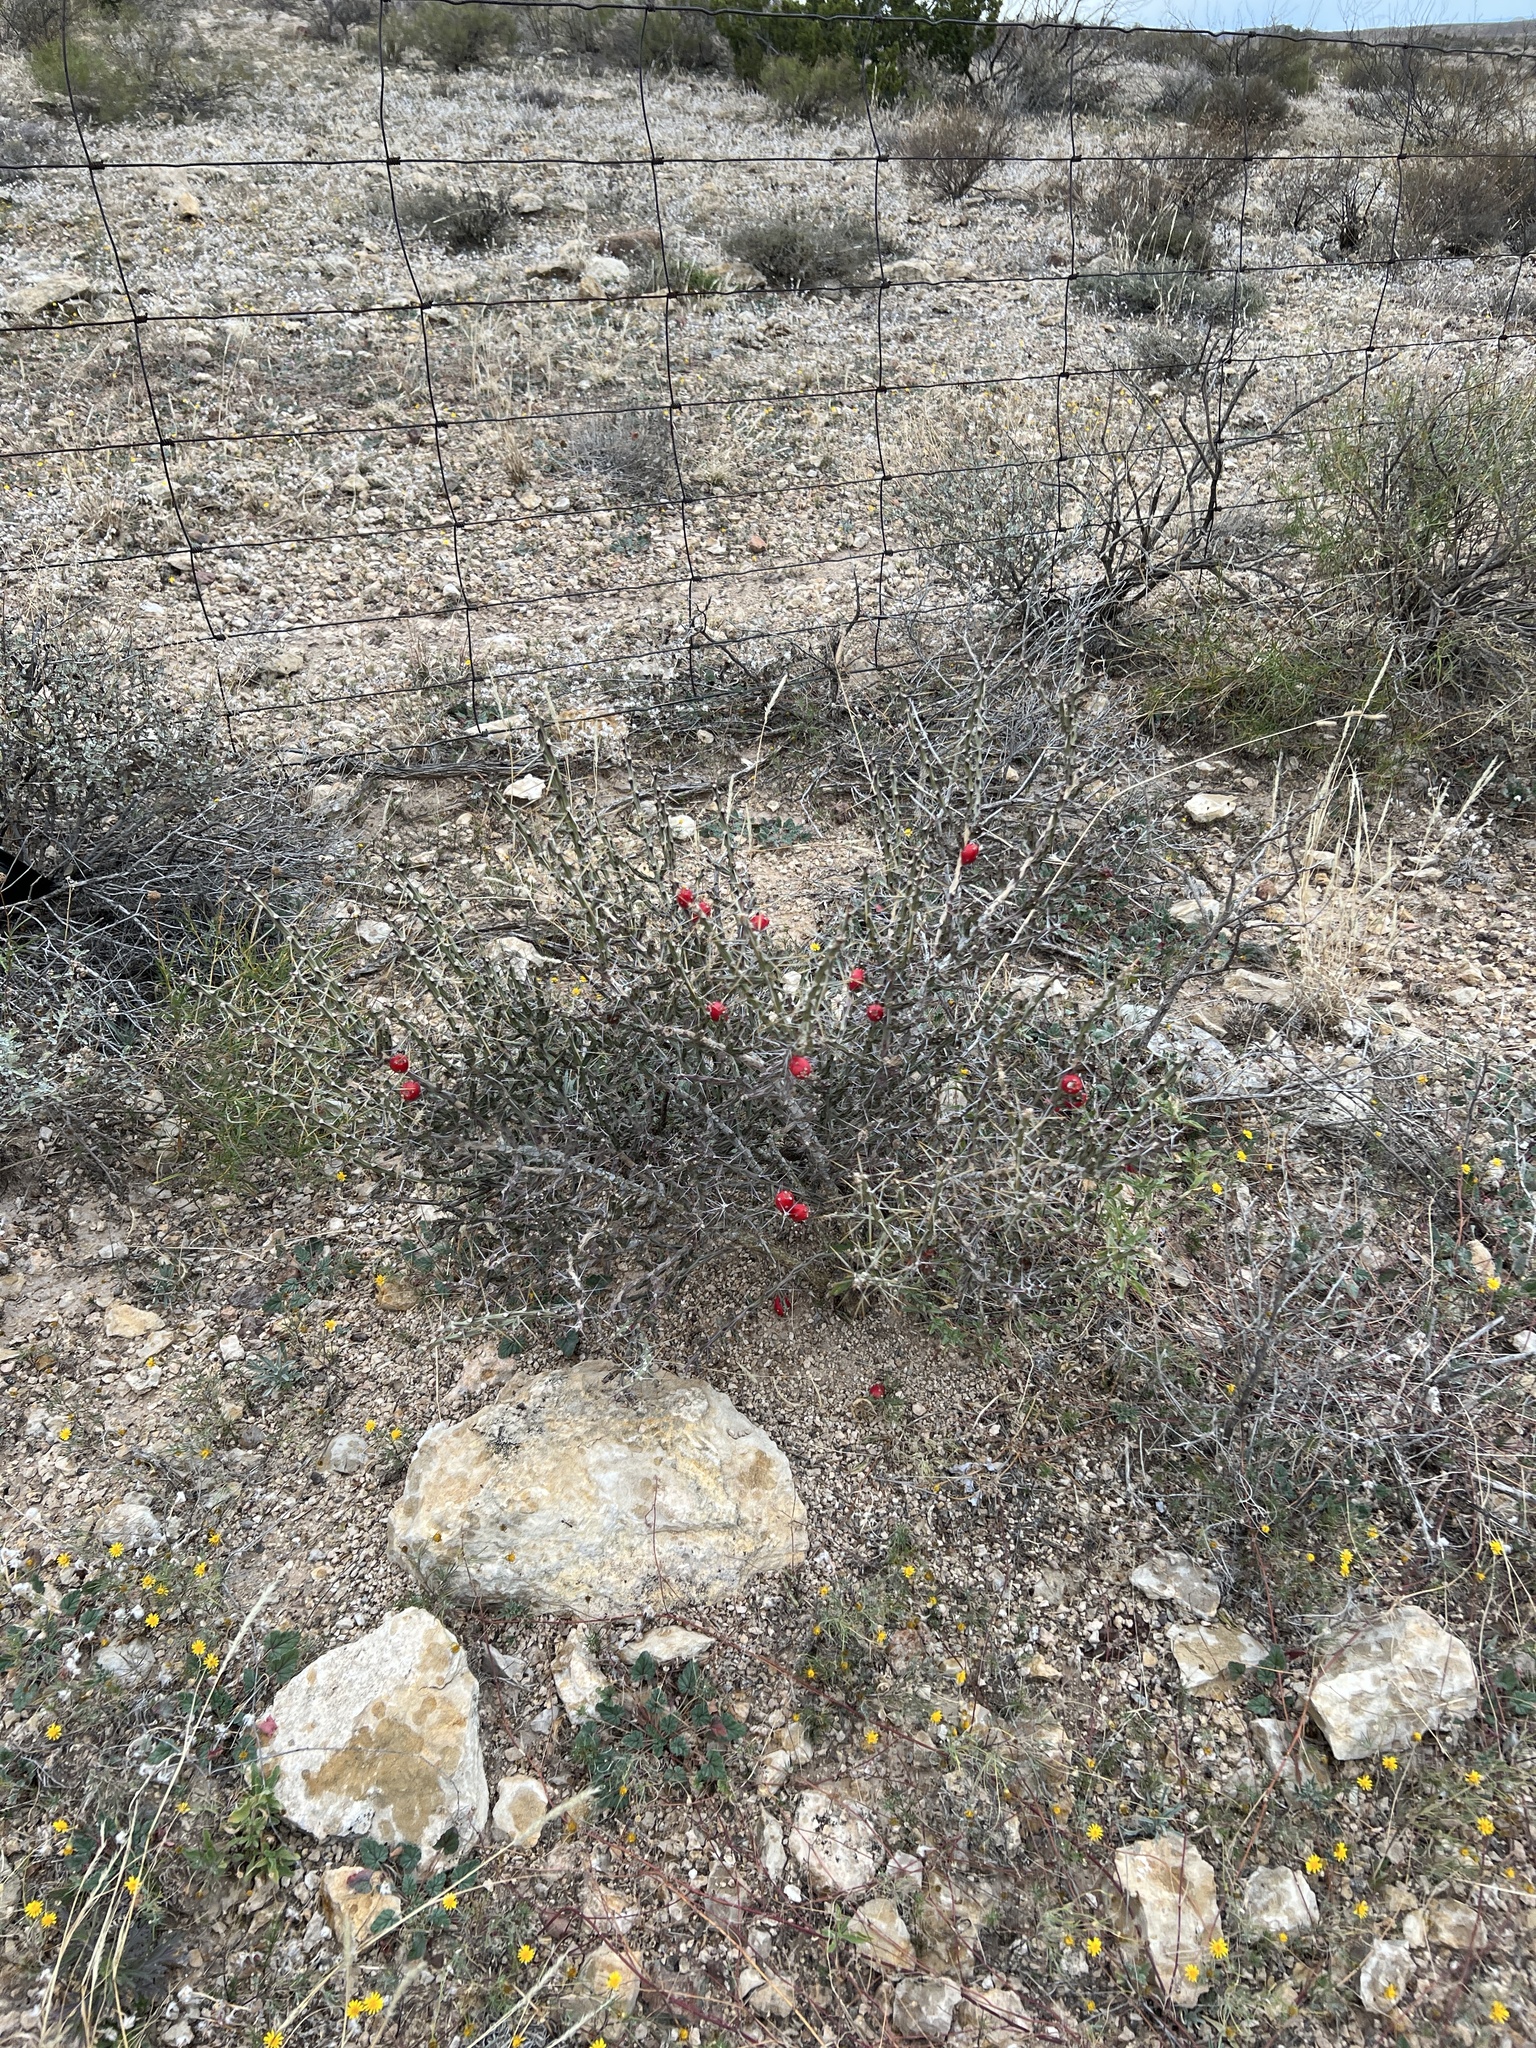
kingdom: Plantae
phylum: Tracheophyta
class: Magnoliopsida
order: Caryophyllales
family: Cactaceae
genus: Cylindropuntia
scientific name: Cylindropuntia leptocaulis
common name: Christmas cactus
